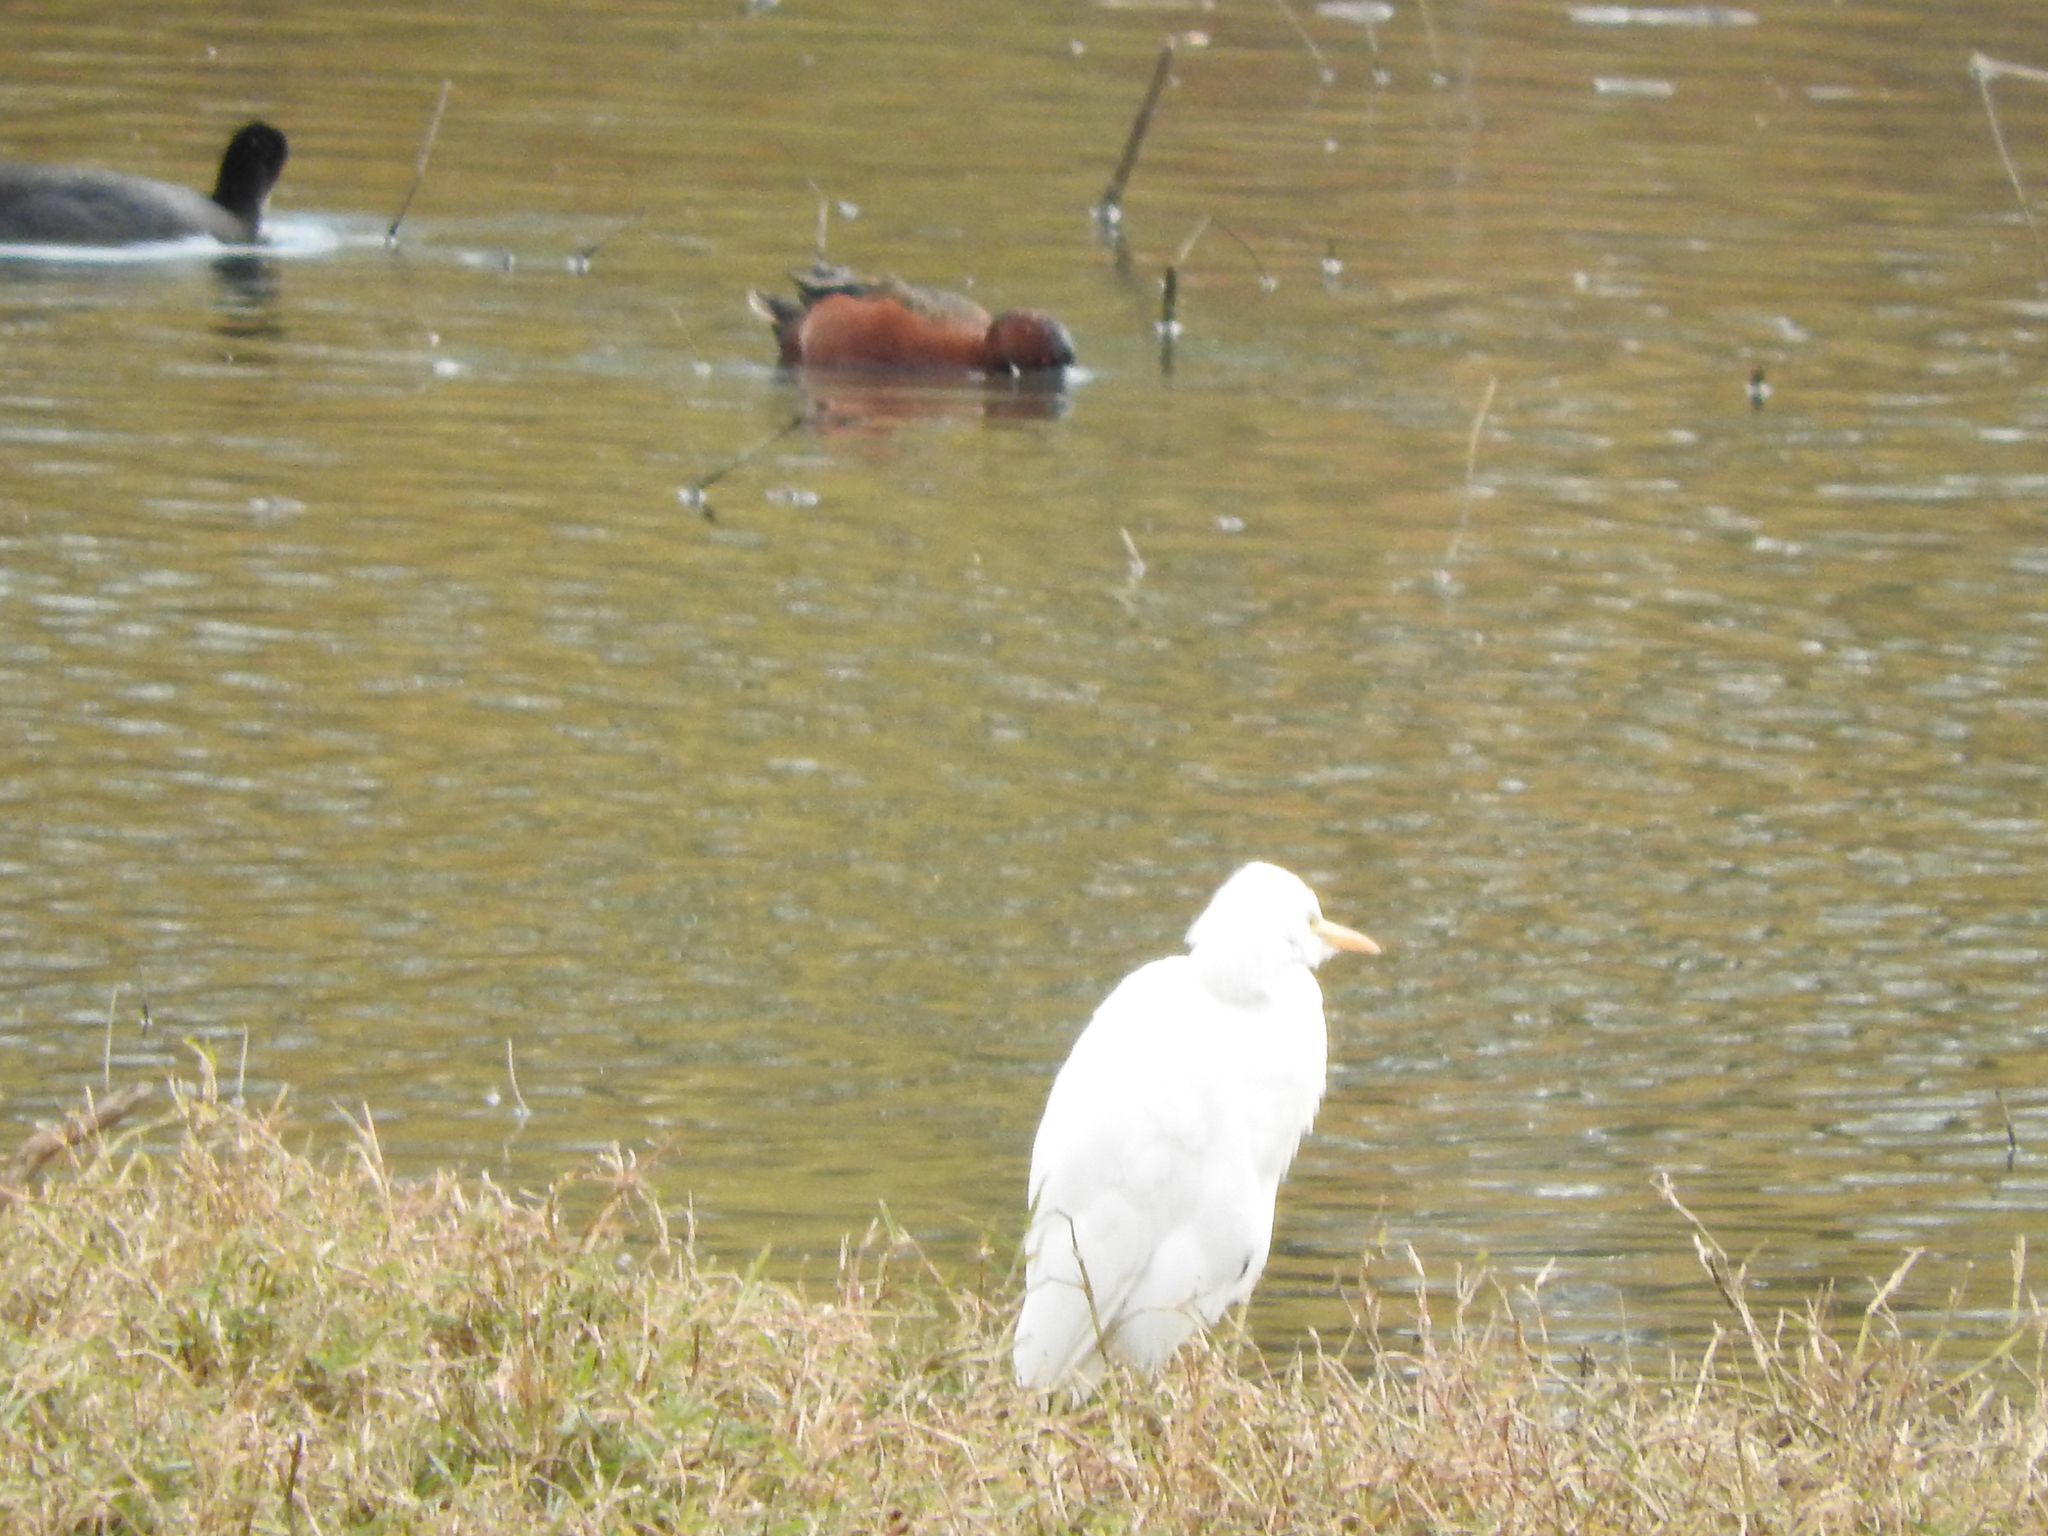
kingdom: Animalia
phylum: Chordata
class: Aves
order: Gruiformes
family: Rallidae
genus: Fulica
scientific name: Fulica americana
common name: American coot
